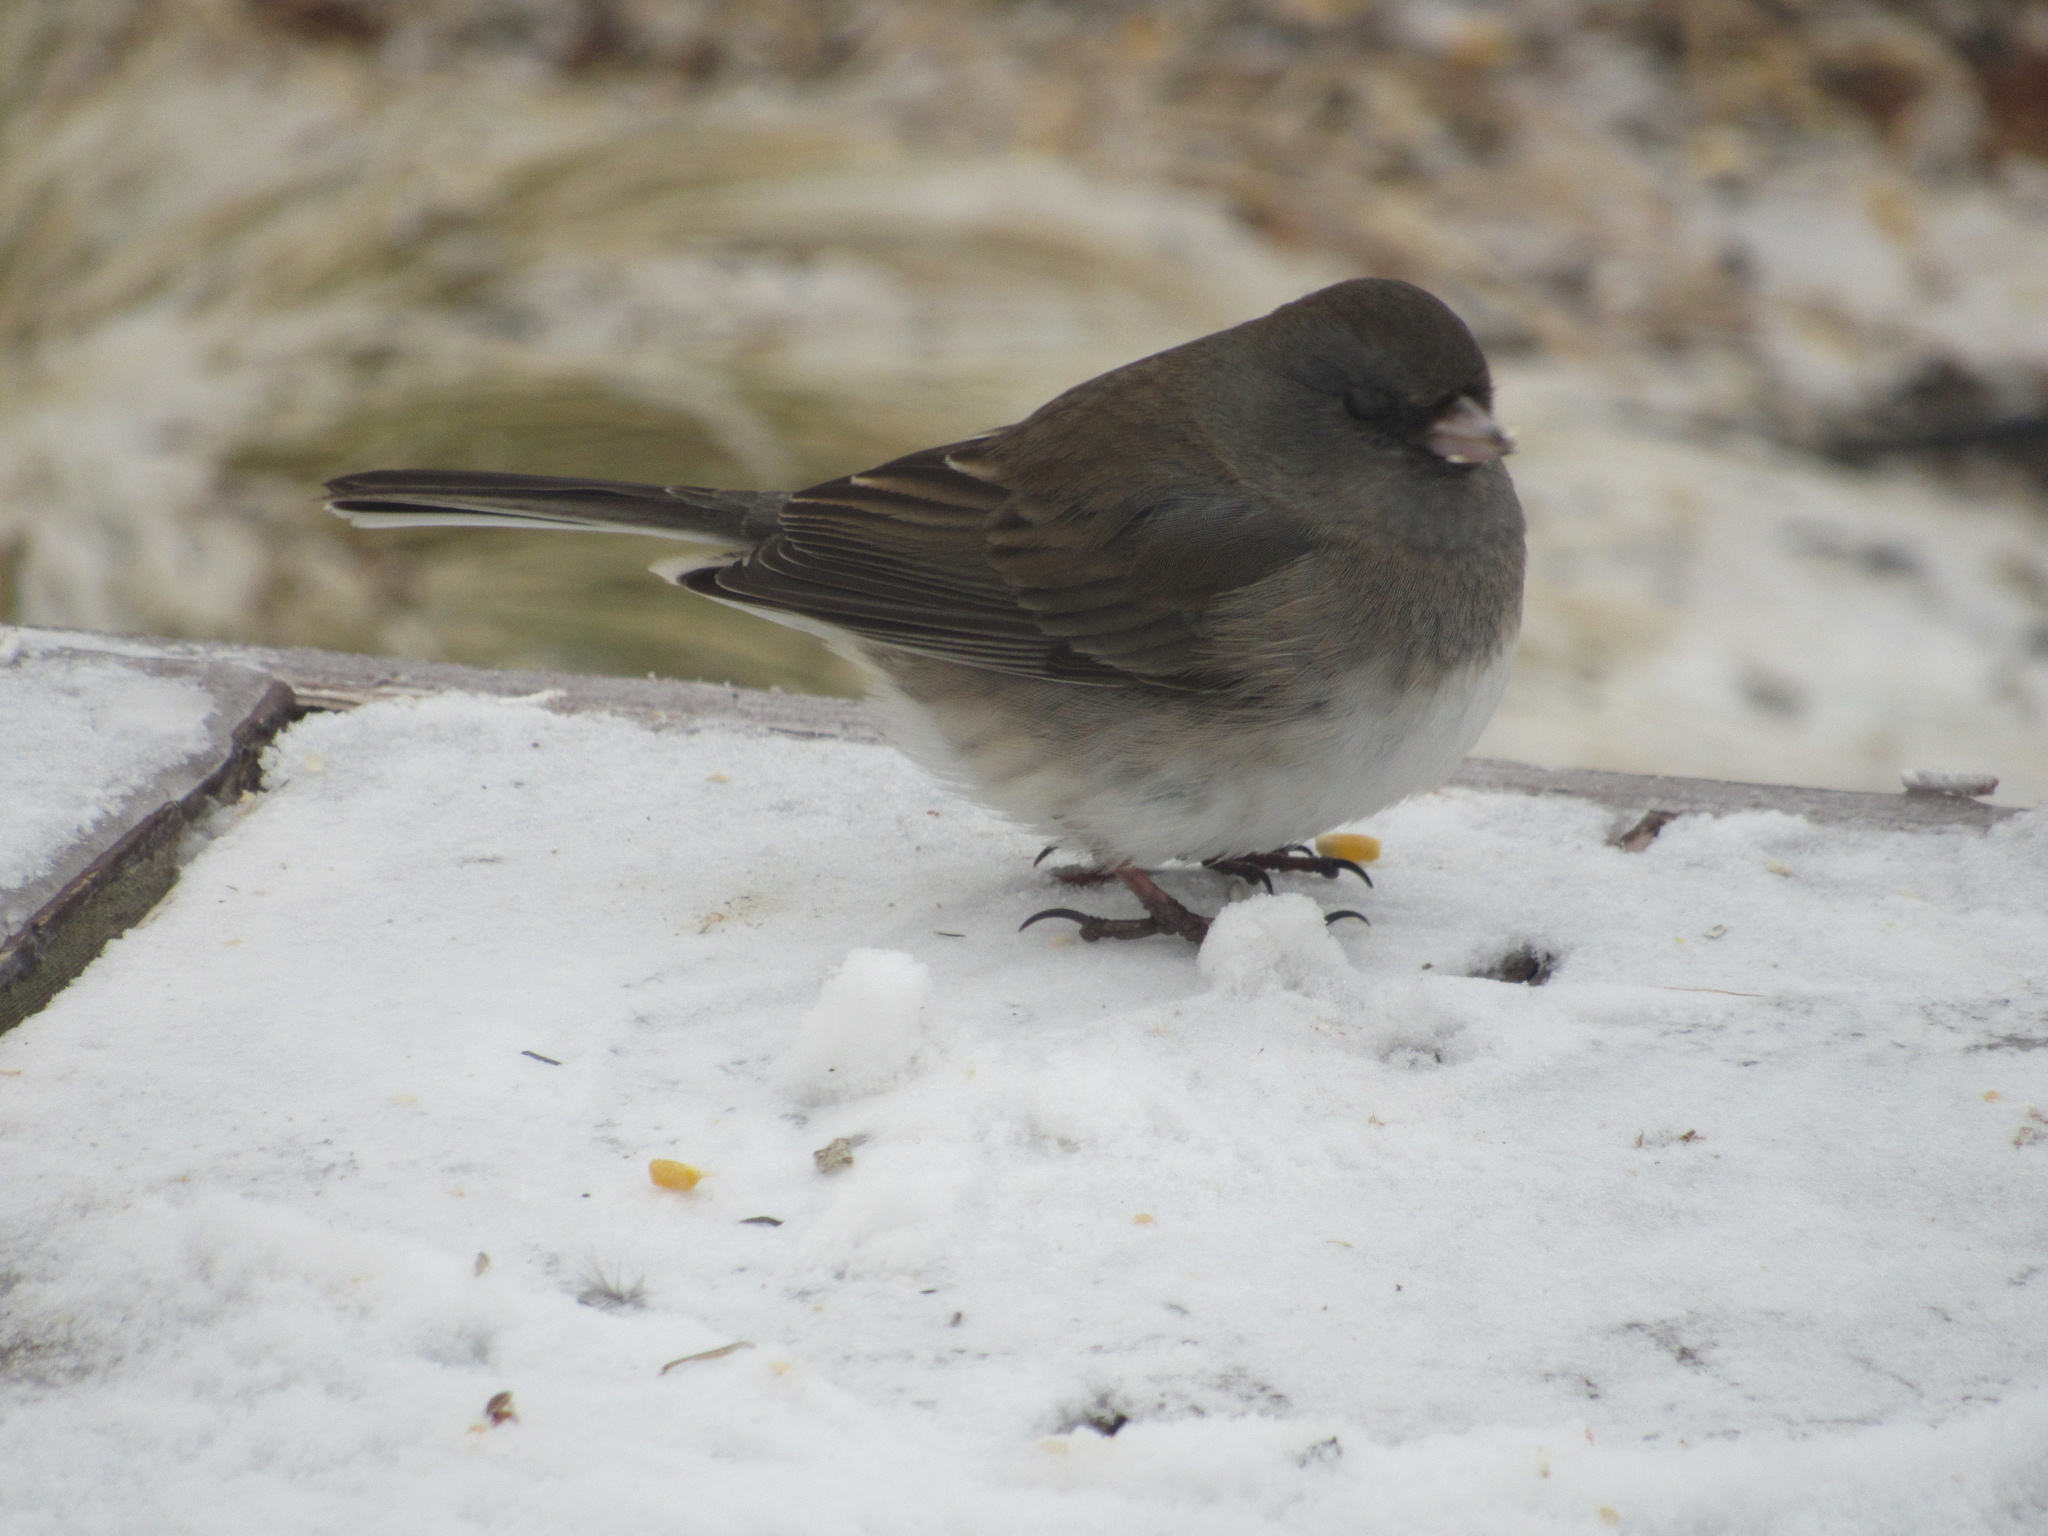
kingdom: Animalia
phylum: Chordata
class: Aves
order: Passeriformes
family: Passerellidae
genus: Junco
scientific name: Junco hyemalis
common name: Dark-eyed junco
